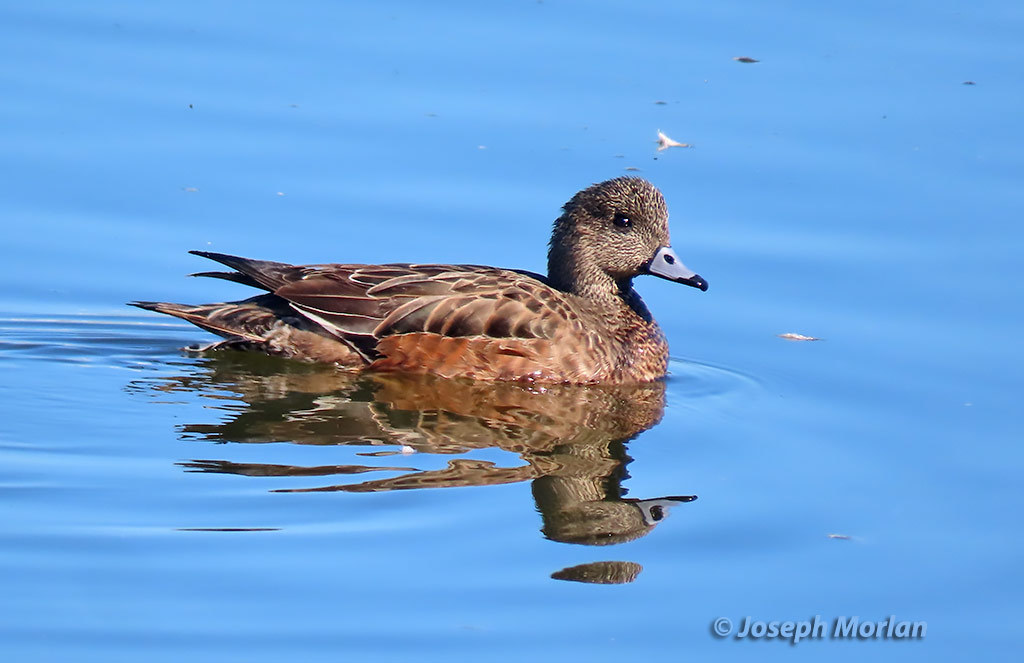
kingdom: Animalia
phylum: Chordata
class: Aves
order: Anseriformes
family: Anatidae
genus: Mareca
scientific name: Mareca americana
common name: American wigeon
